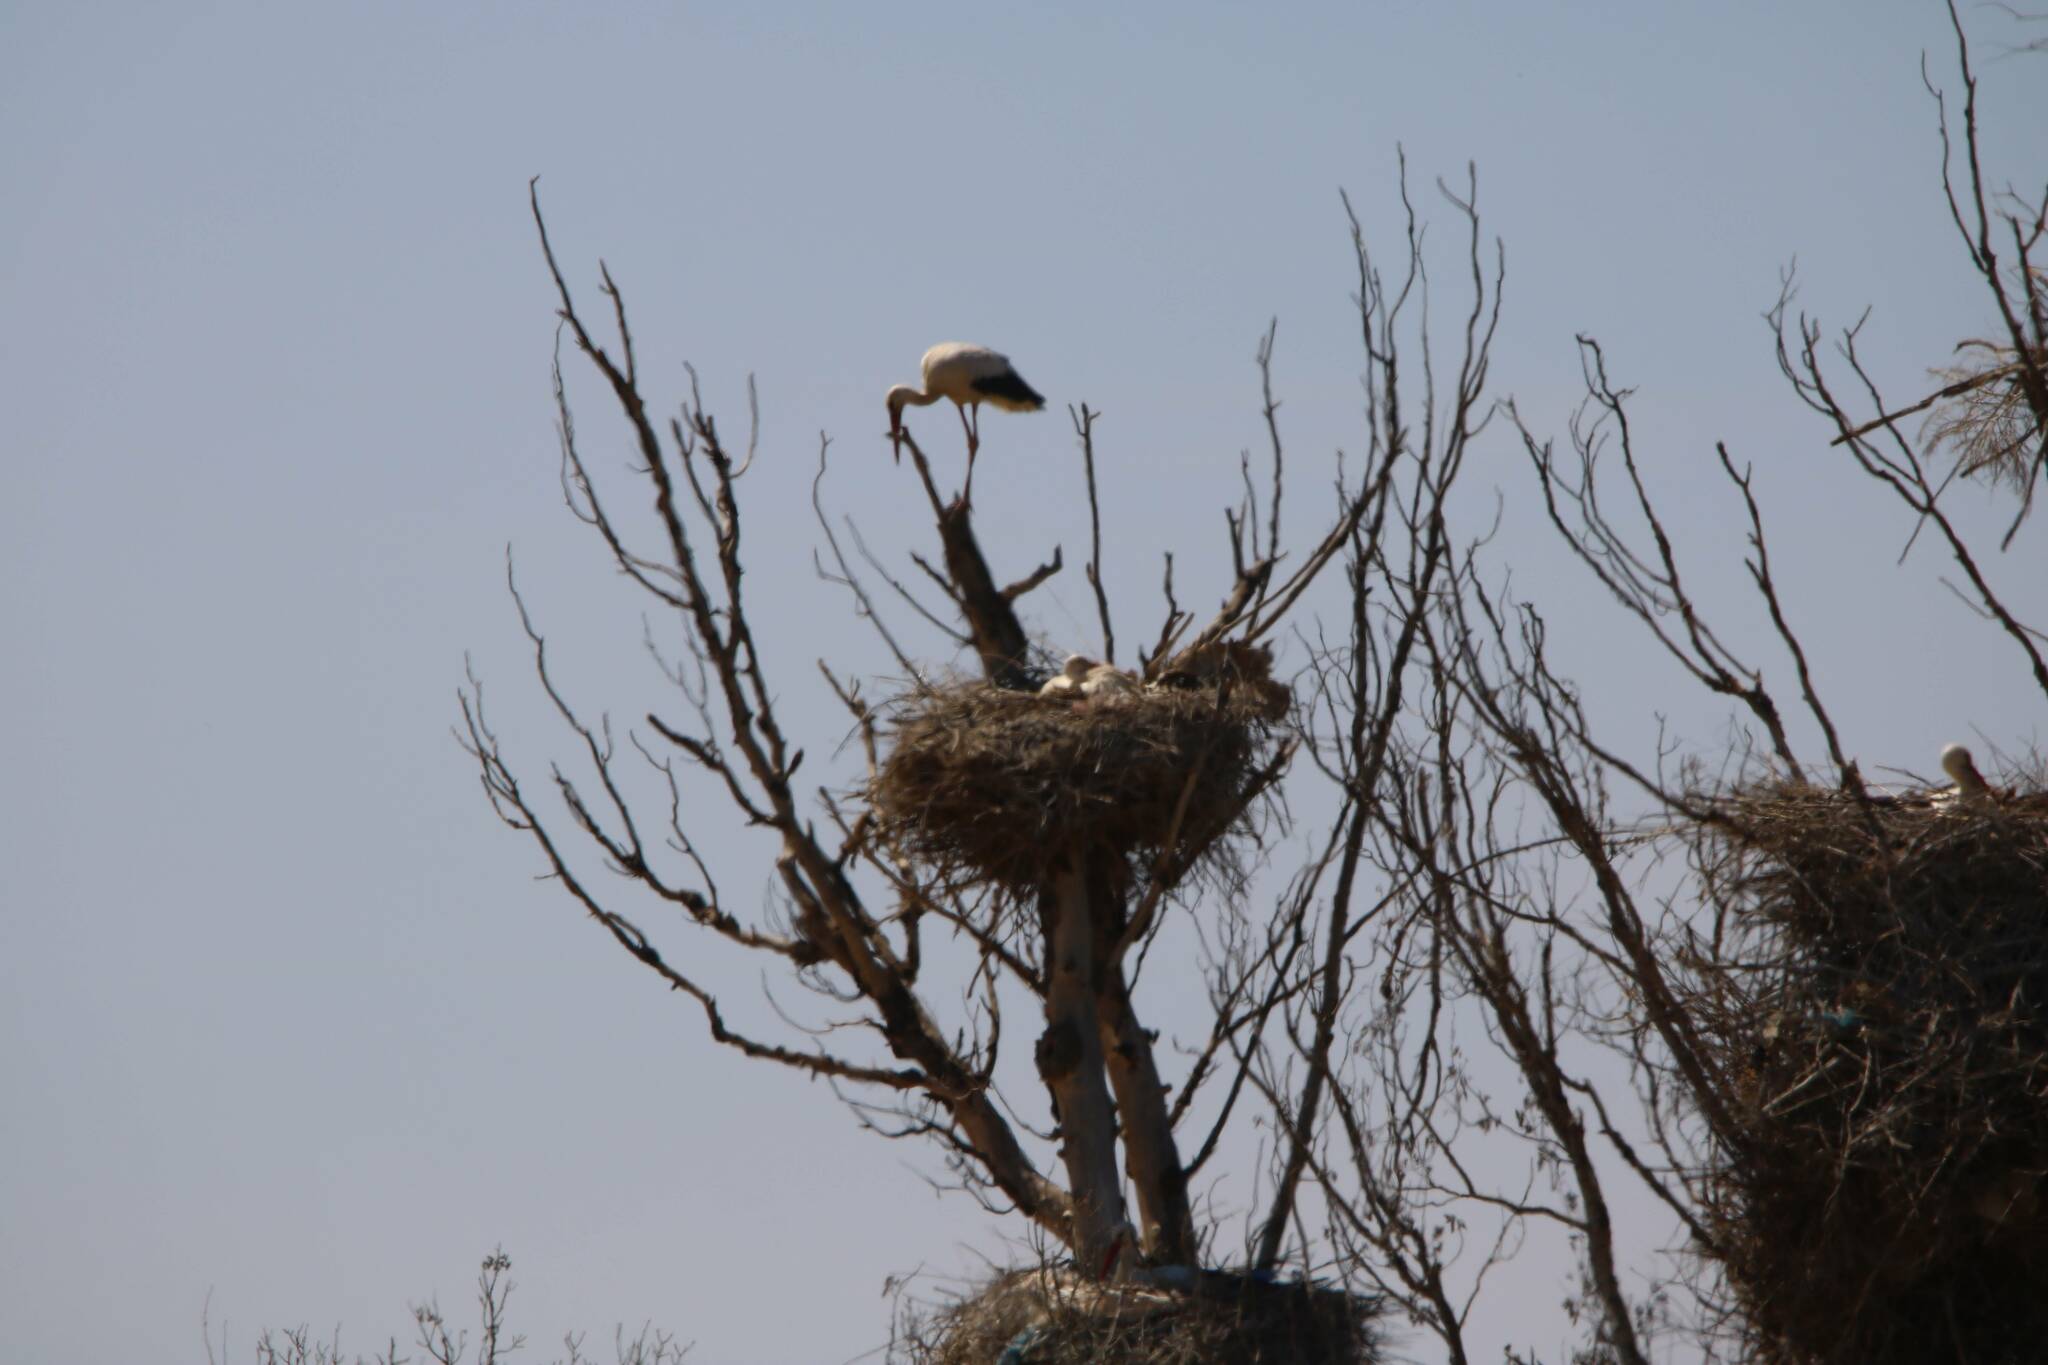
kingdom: Animalia
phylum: Chordata
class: Aves
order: Ciconiiformes
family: Ciconiidae
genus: Ciconia
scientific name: Ciconia ciconia
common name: White stork
